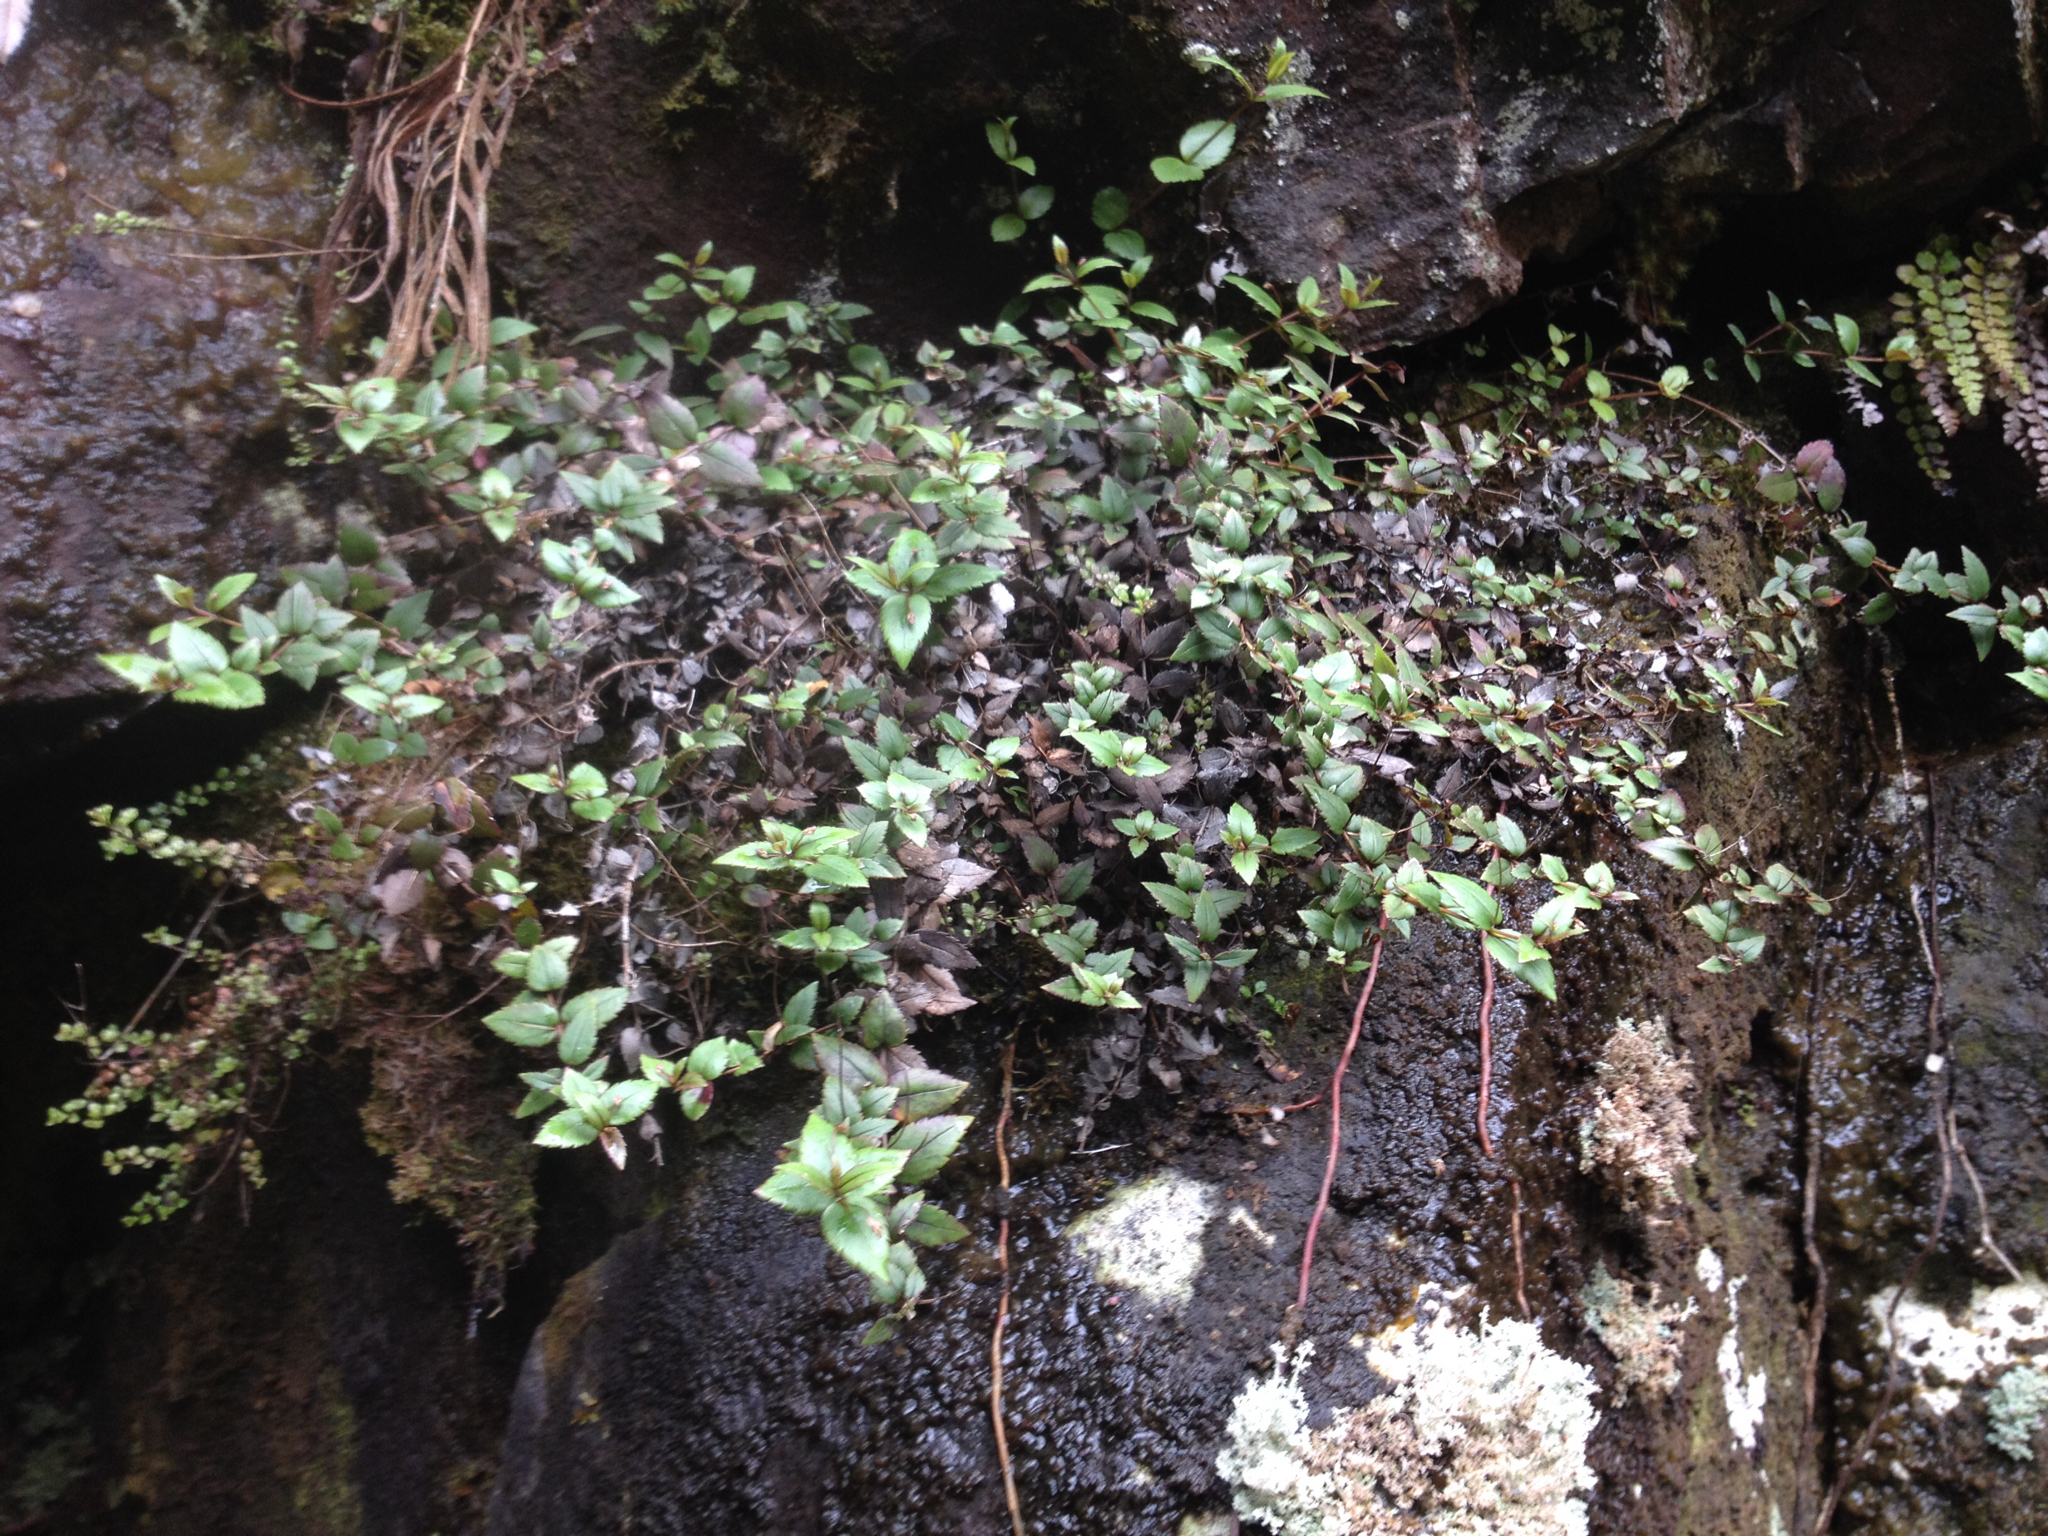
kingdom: Plantae
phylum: Tracheophyta
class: Magnoliopsida
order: Lamiales
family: Plantaginaceae
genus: Veronica
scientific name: Veronica lanceolata
